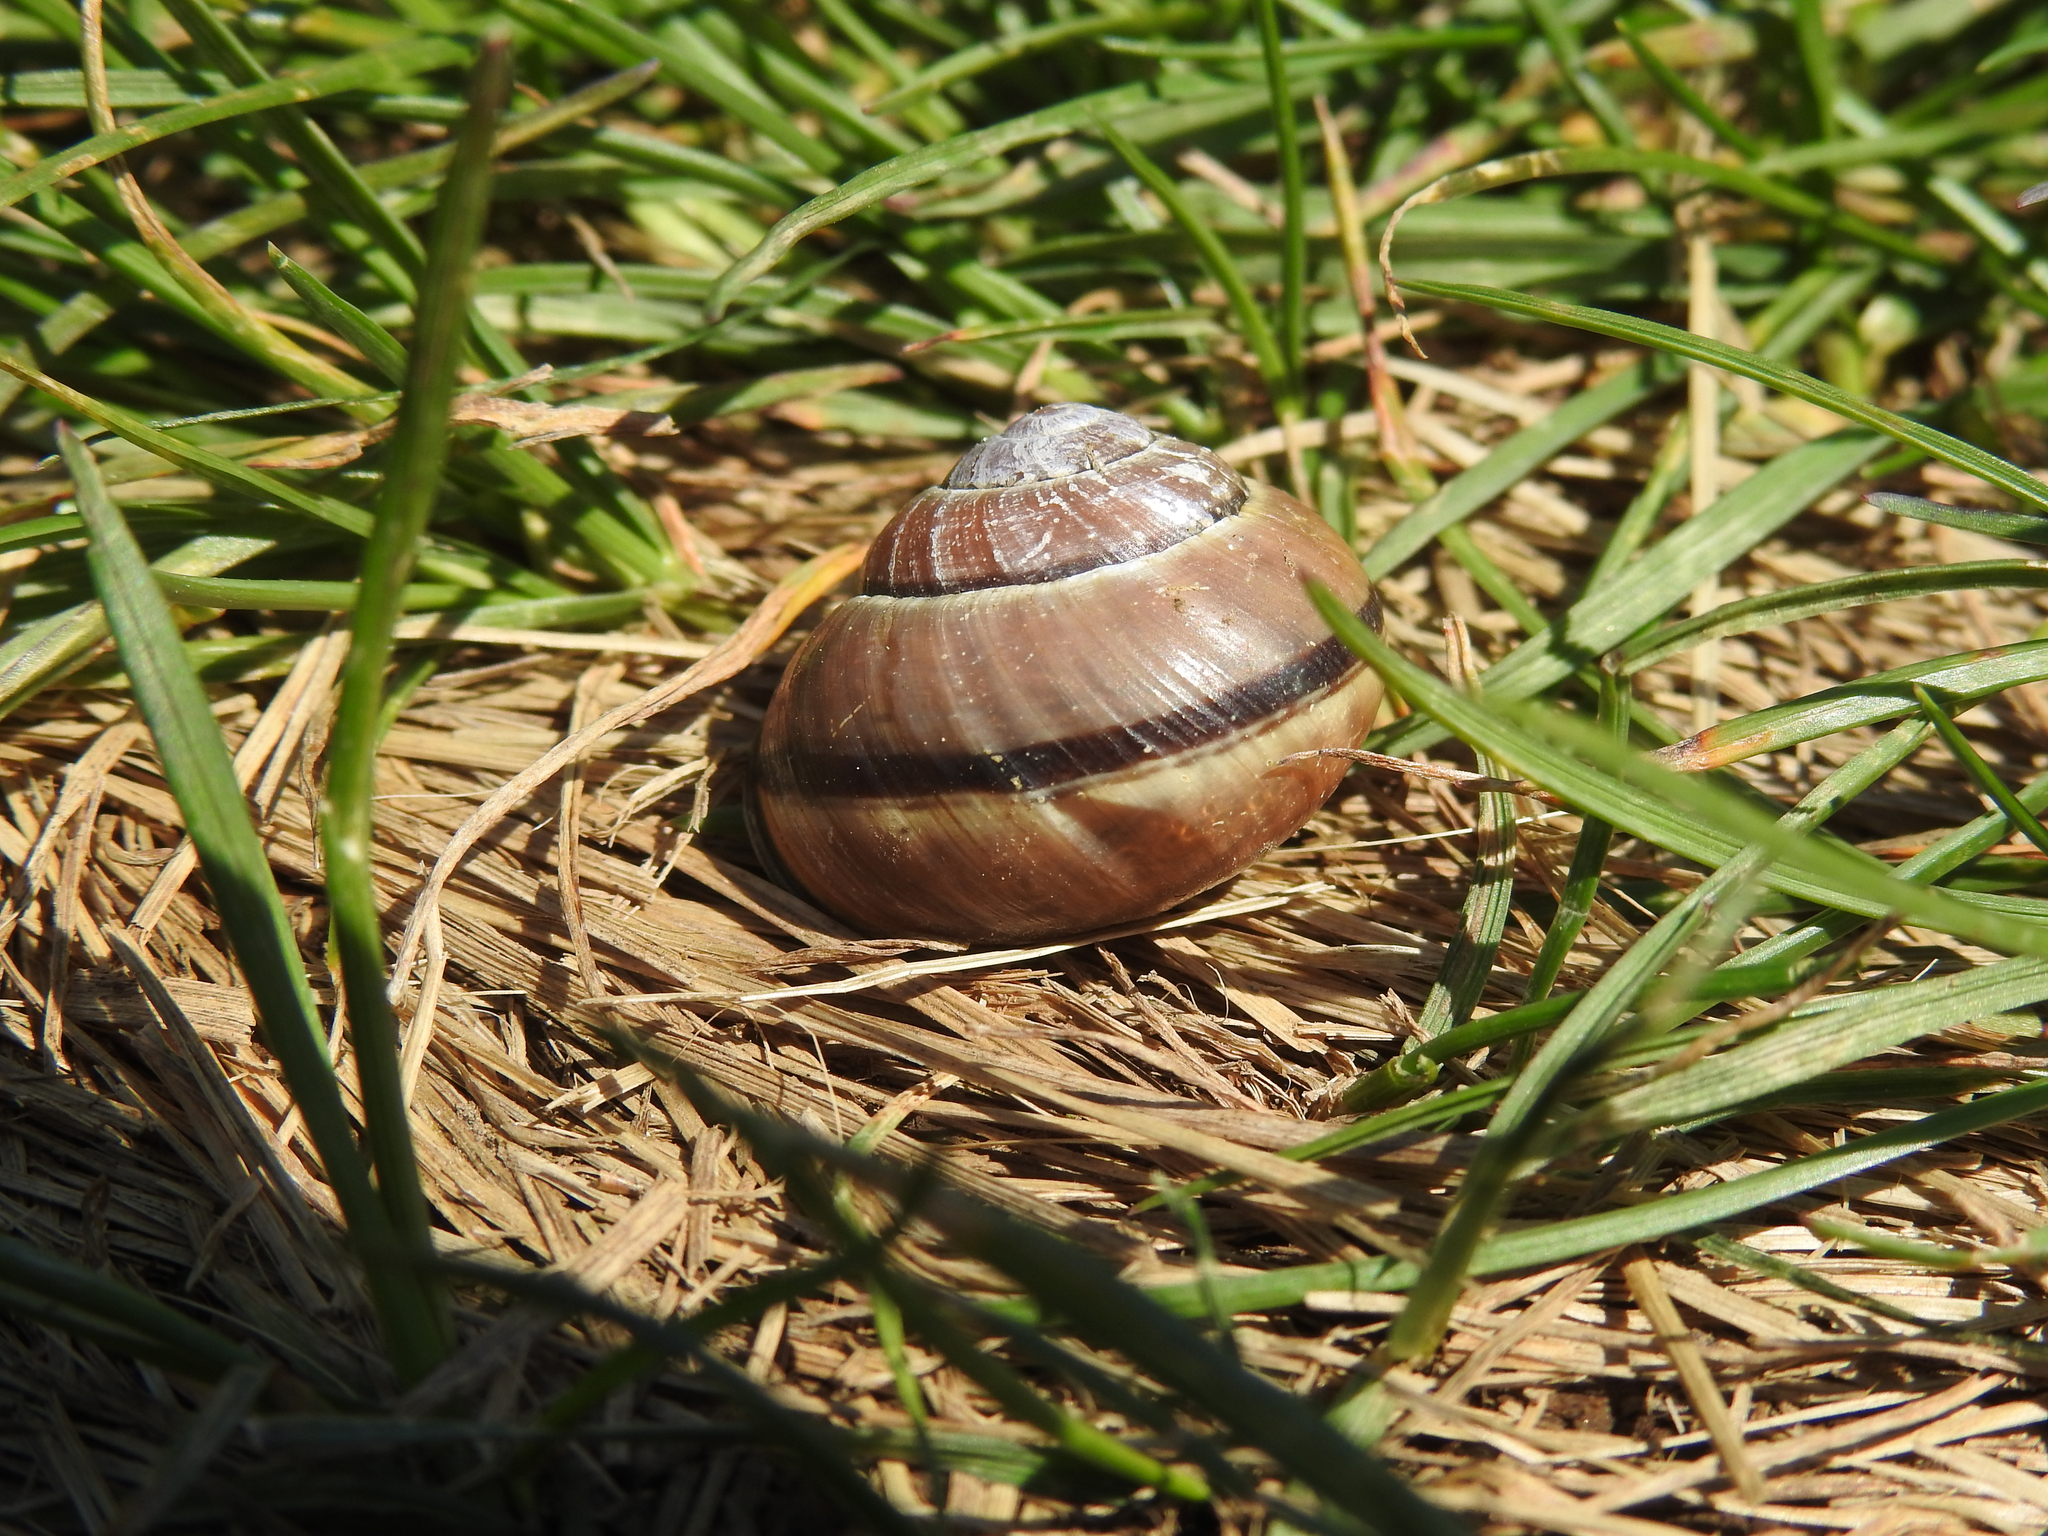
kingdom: Animalia
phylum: Mollusca
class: Gastropoda
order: Stylommatophora
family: Helicidae
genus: Cepaea
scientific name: Cepaea nemoralis
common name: Grovesnail
